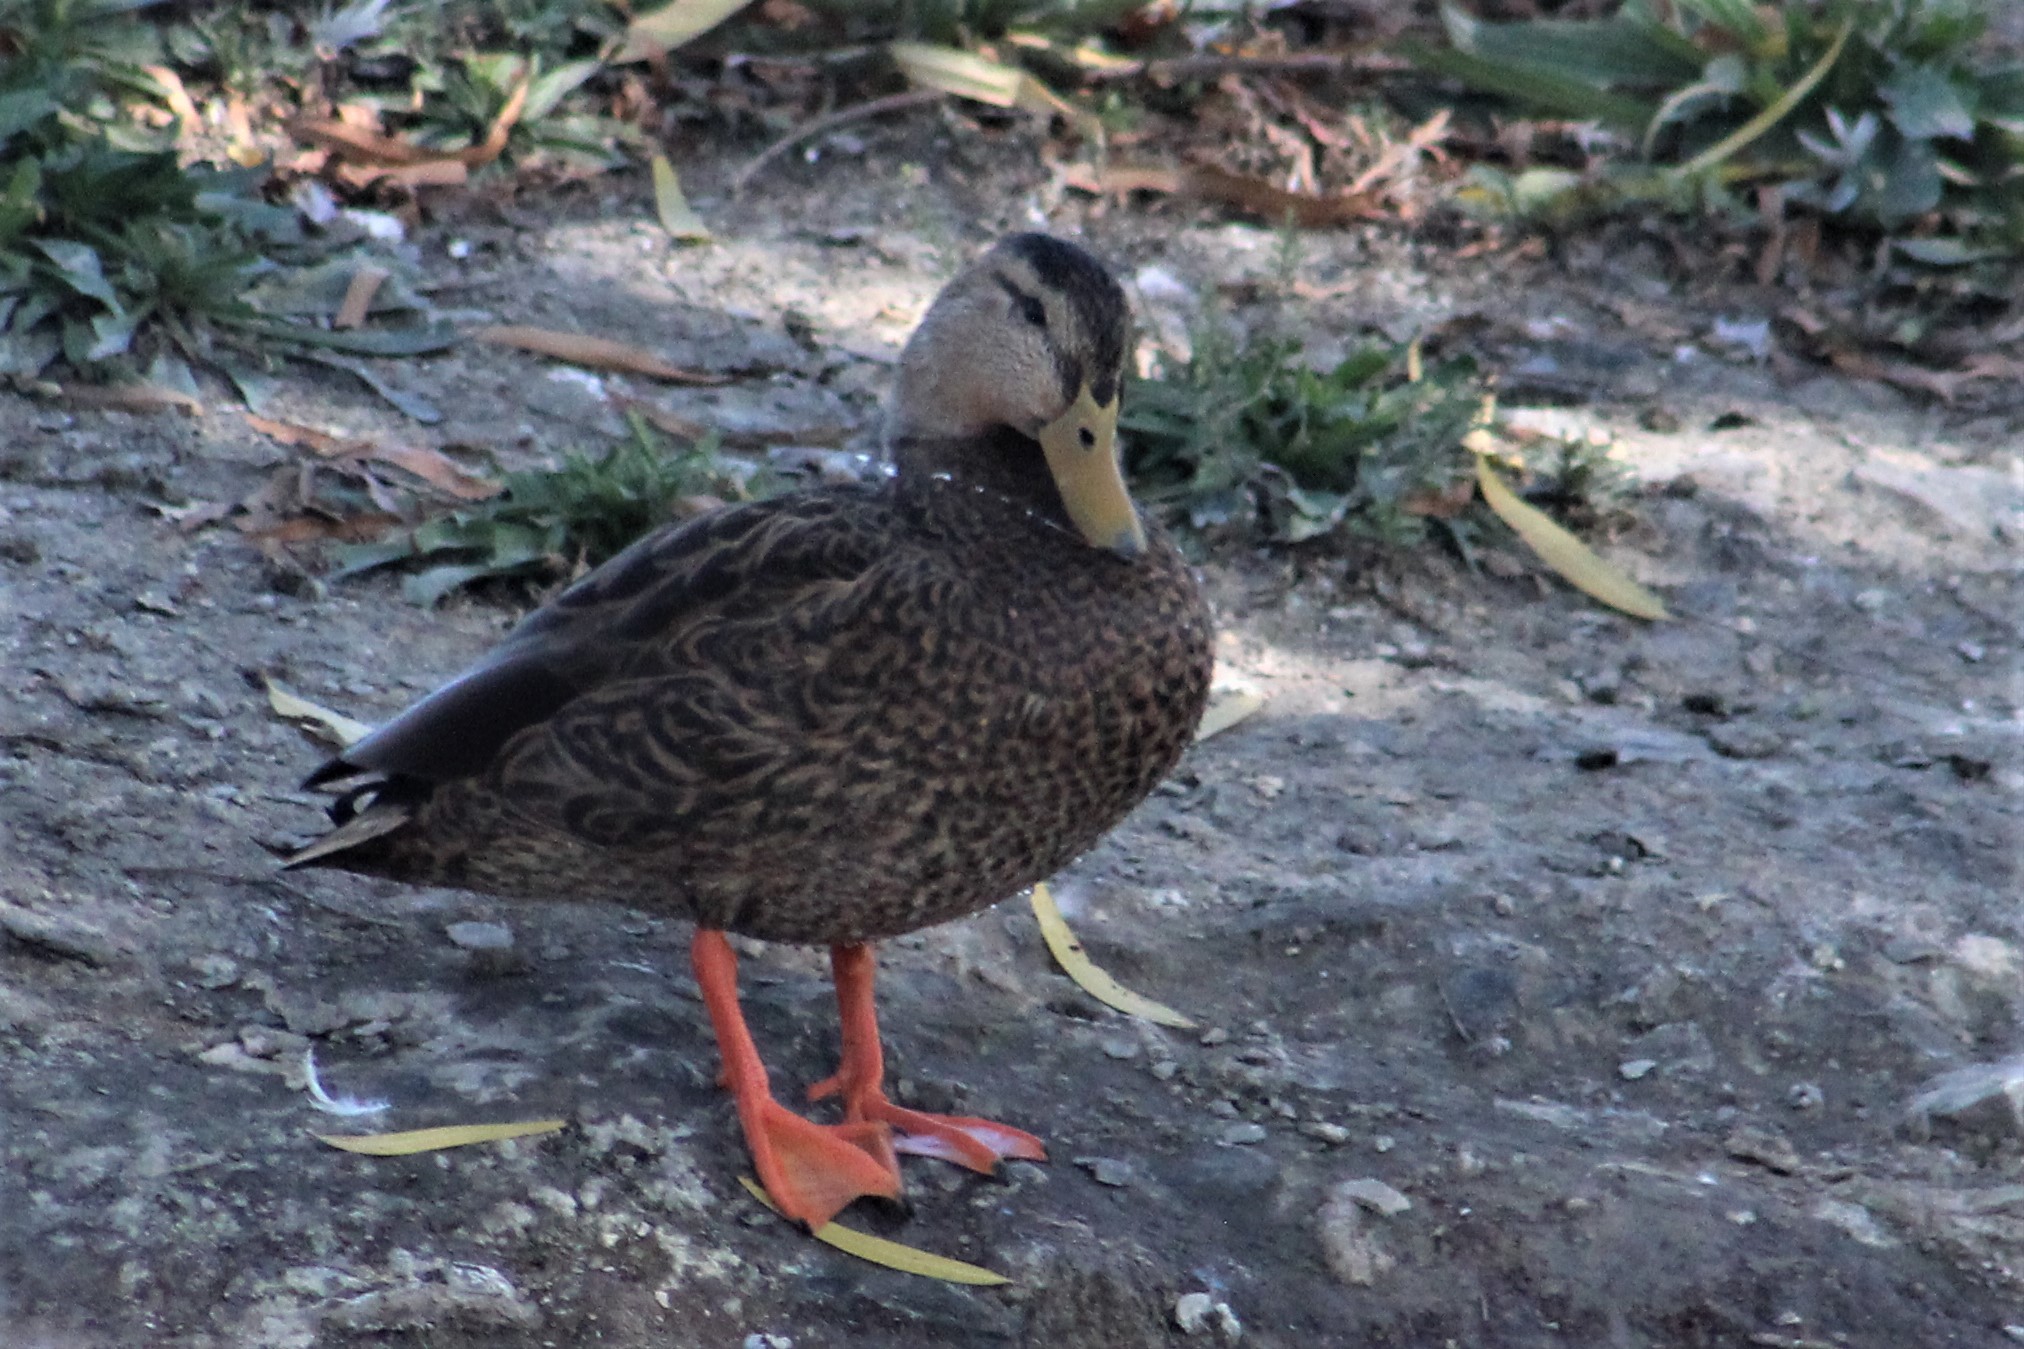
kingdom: Animalia
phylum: Chordata
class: Aves
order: Anseriformes
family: Anatidae
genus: Anas
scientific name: Anas diazi
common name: Mexican duck
